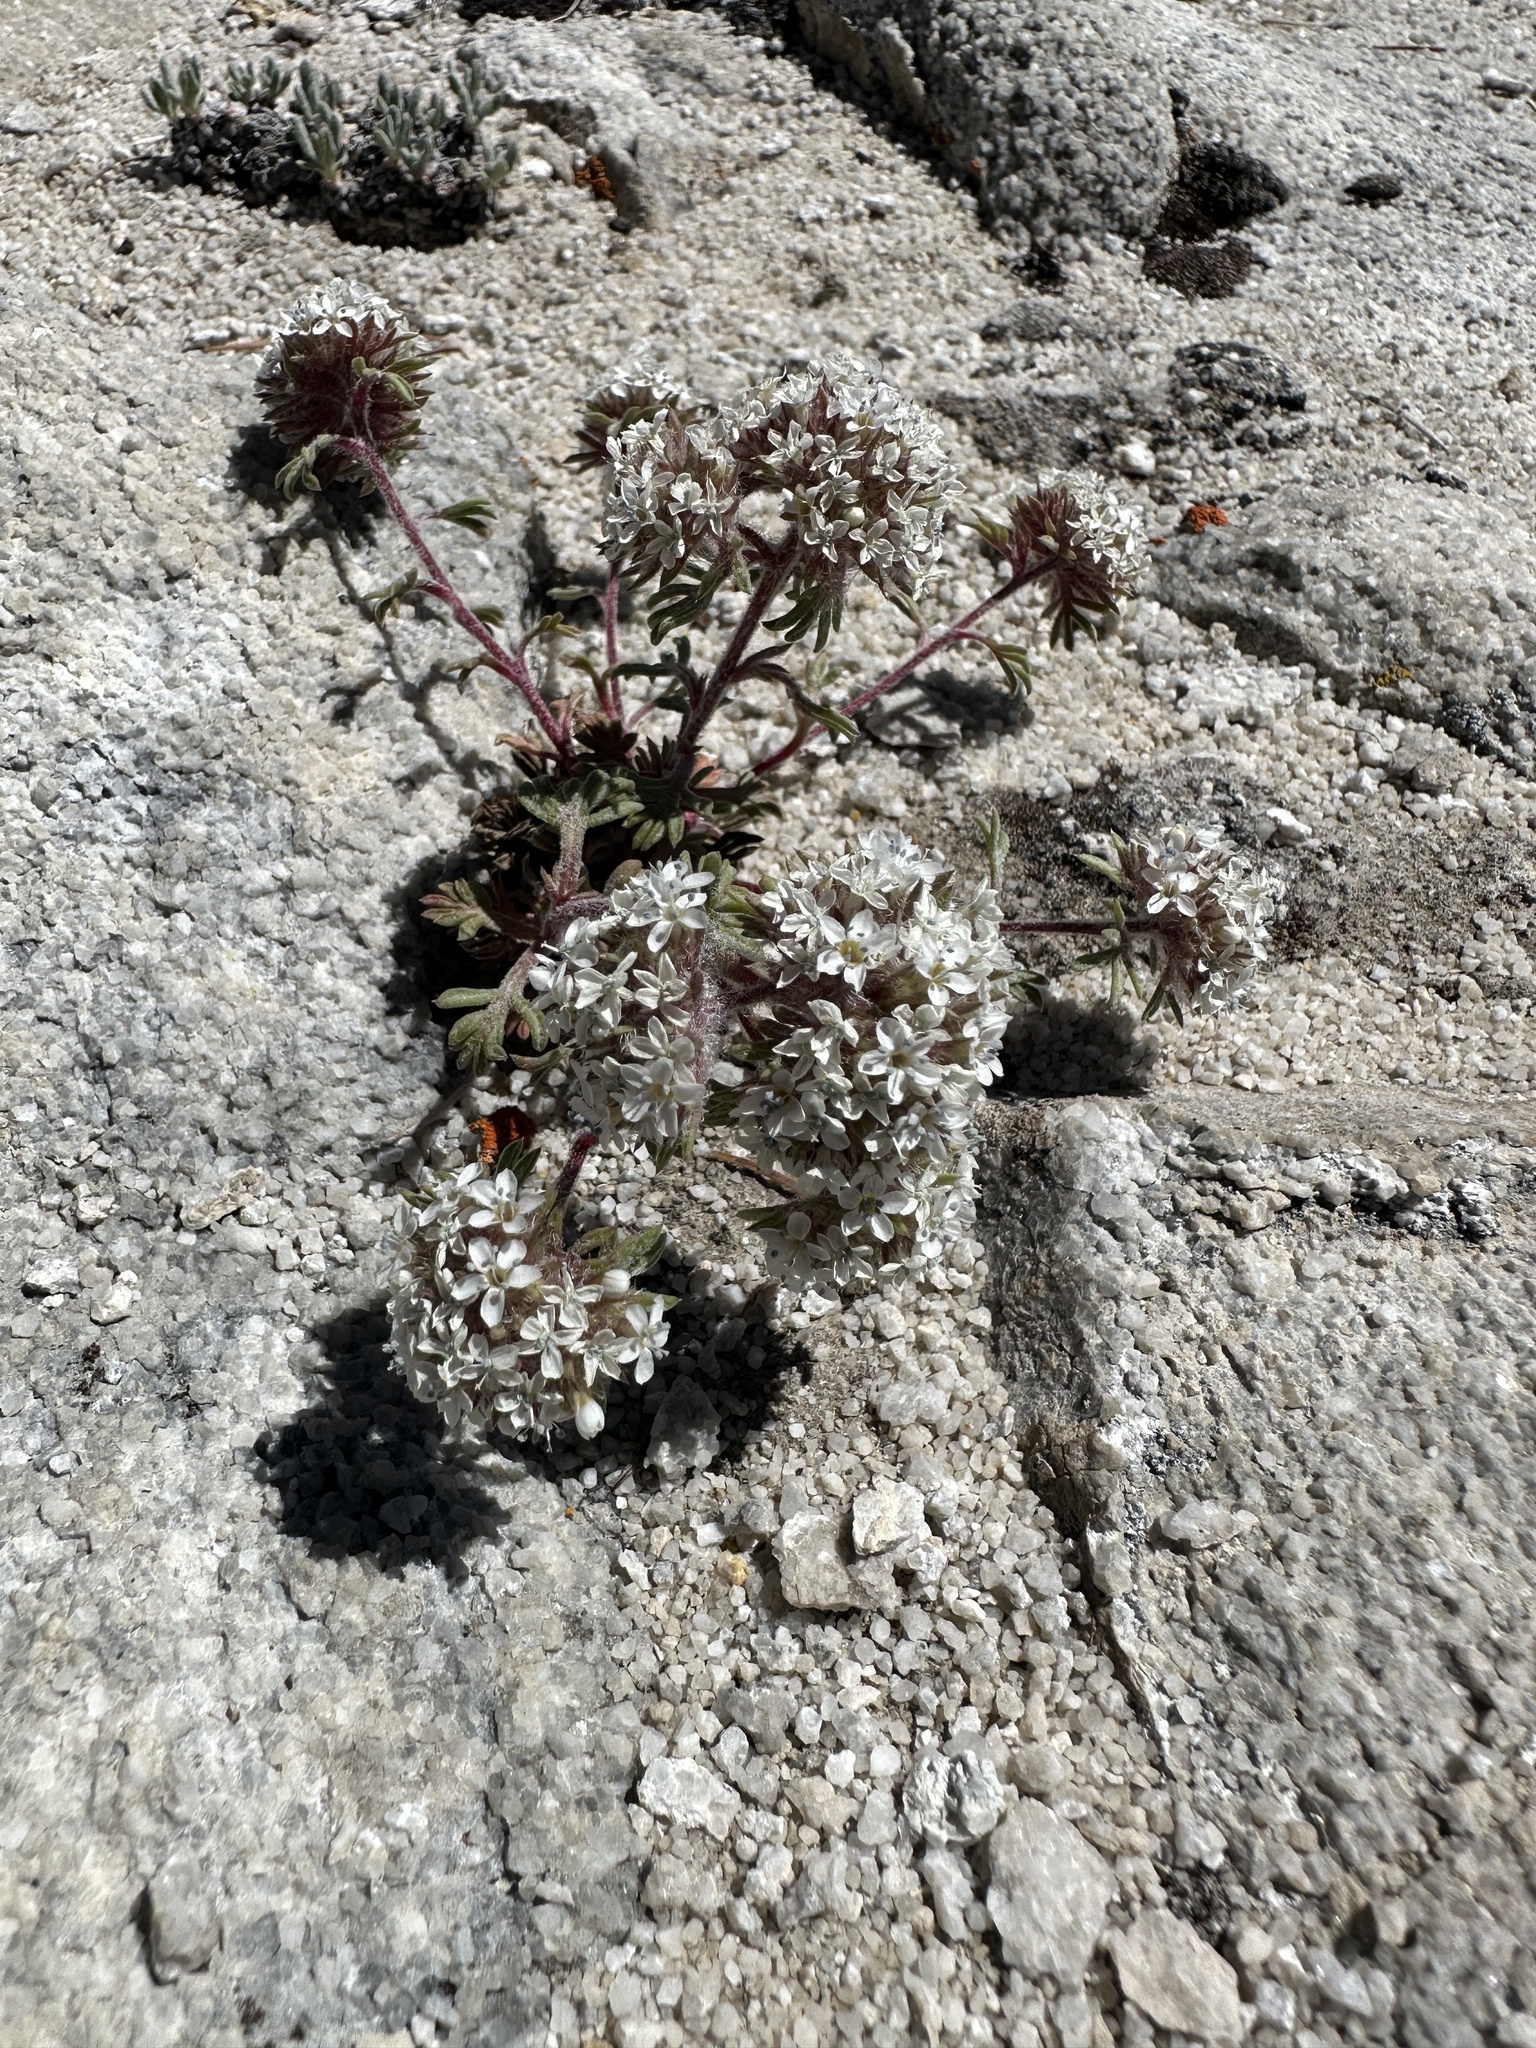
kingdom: Plantae
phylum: Tracheophyta
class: Magnoliopsida
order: Ericales
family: Polemoniaceae
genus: Ipomopsis
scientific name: Ipomopsis congesta
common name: Ball-head gilia
